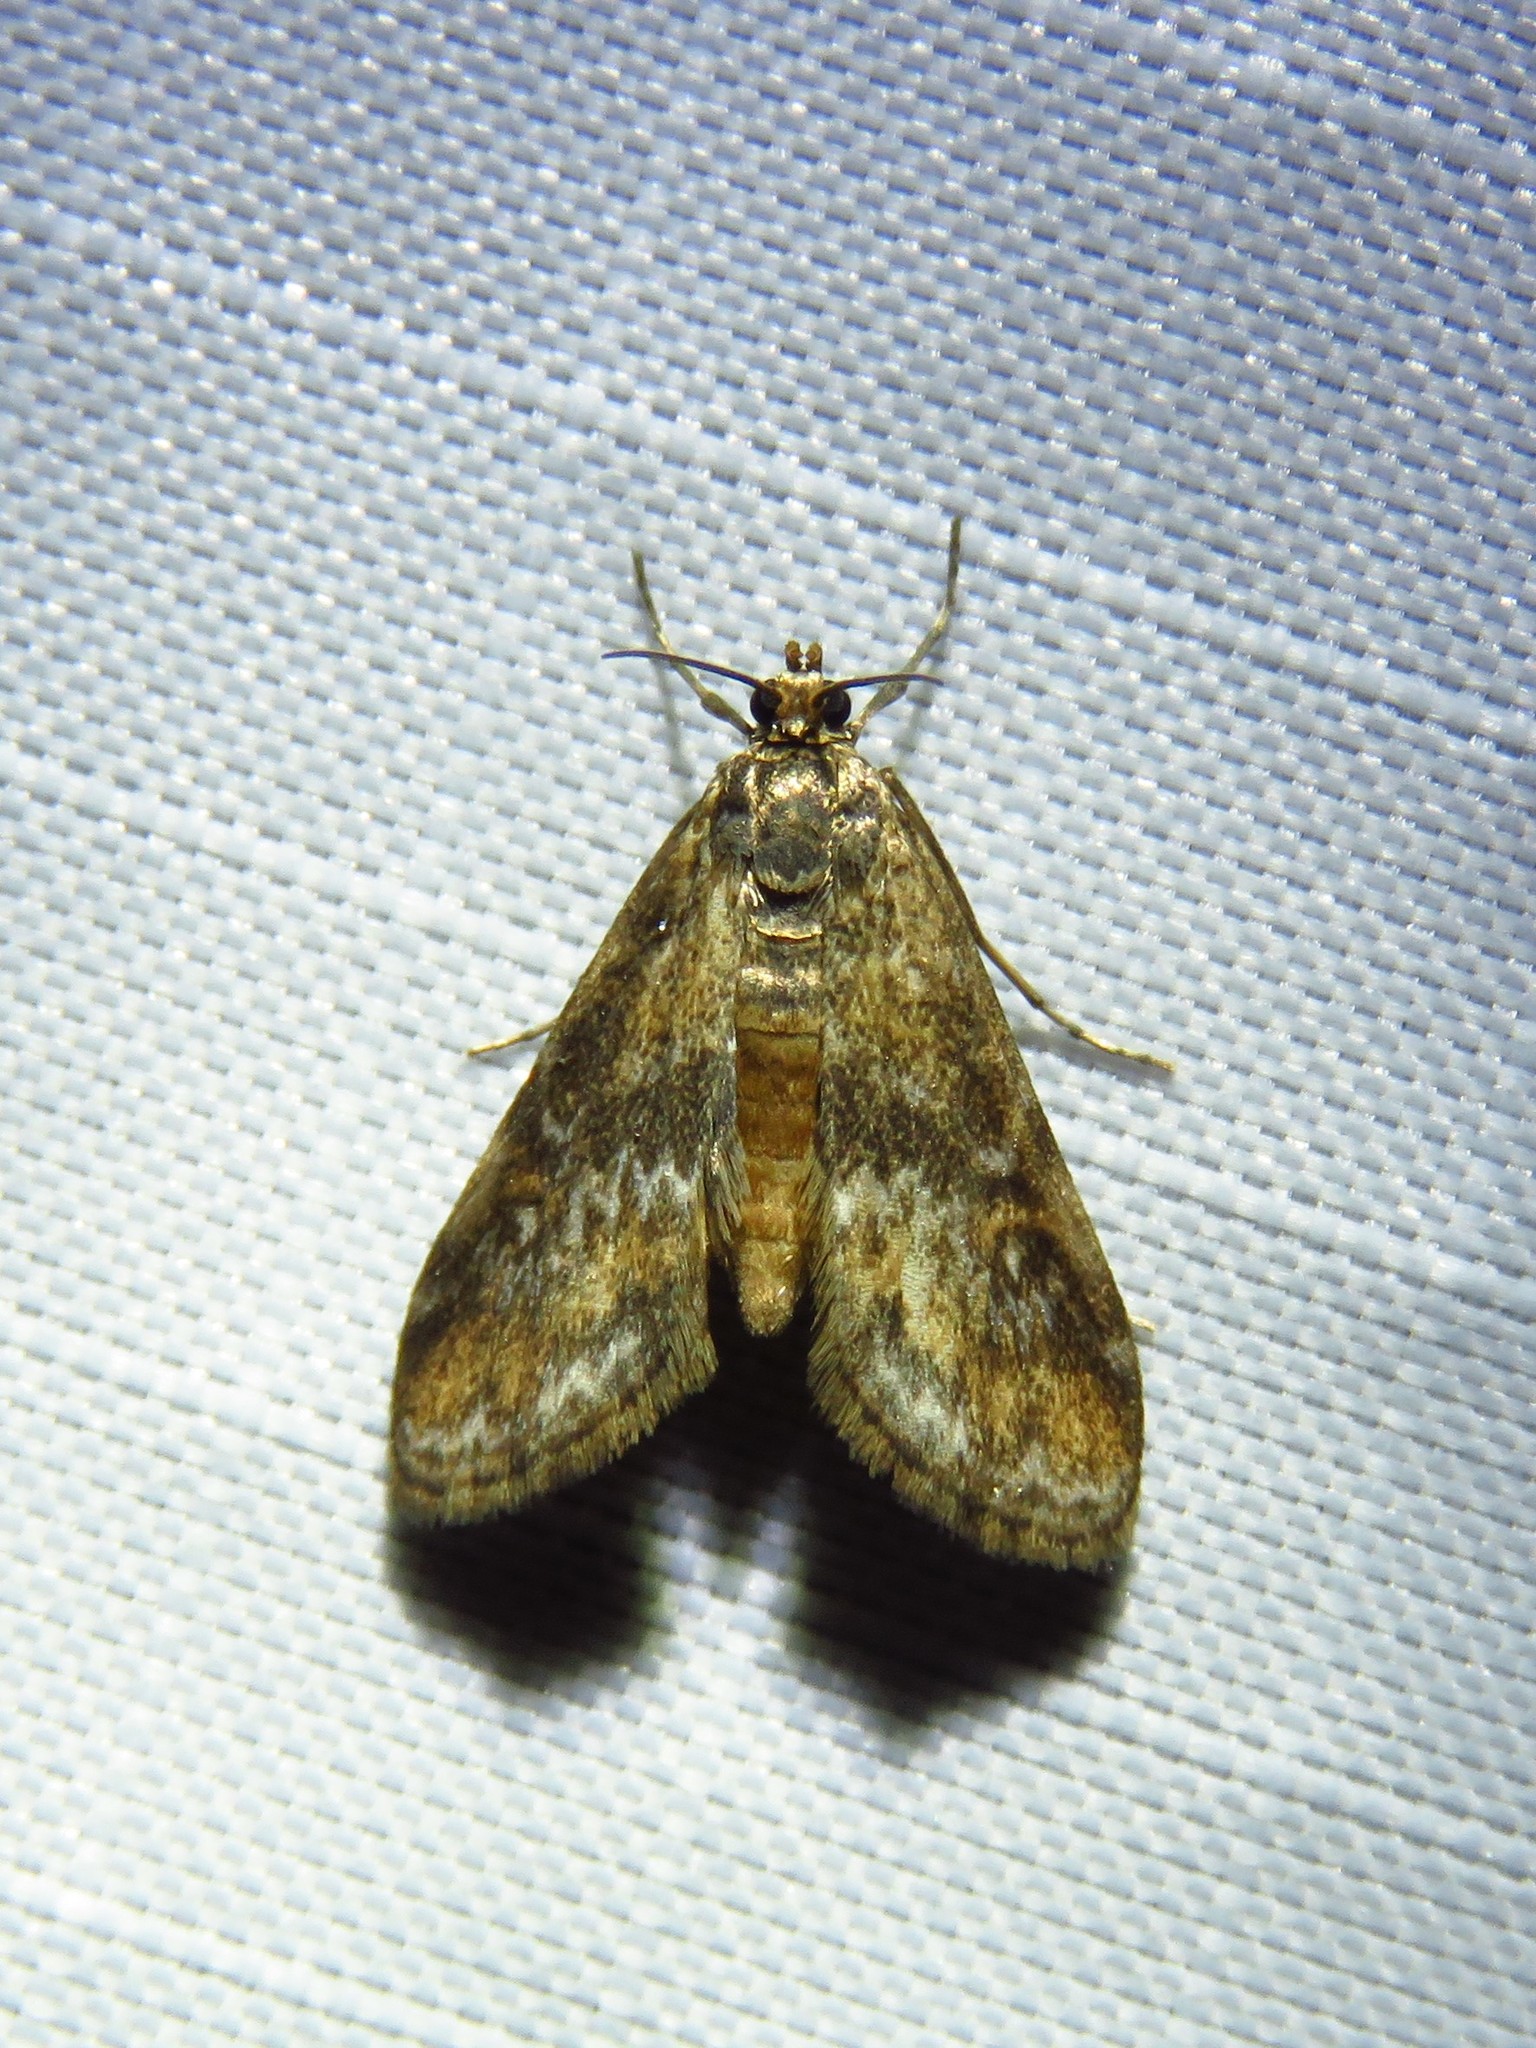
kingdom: Animalia
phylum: Arthropoda
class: Insecta
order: Lepidoptera
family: Crambidae
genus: Elophila
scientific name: Elophila obliteralis
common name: Waterlily leafcutter moth
